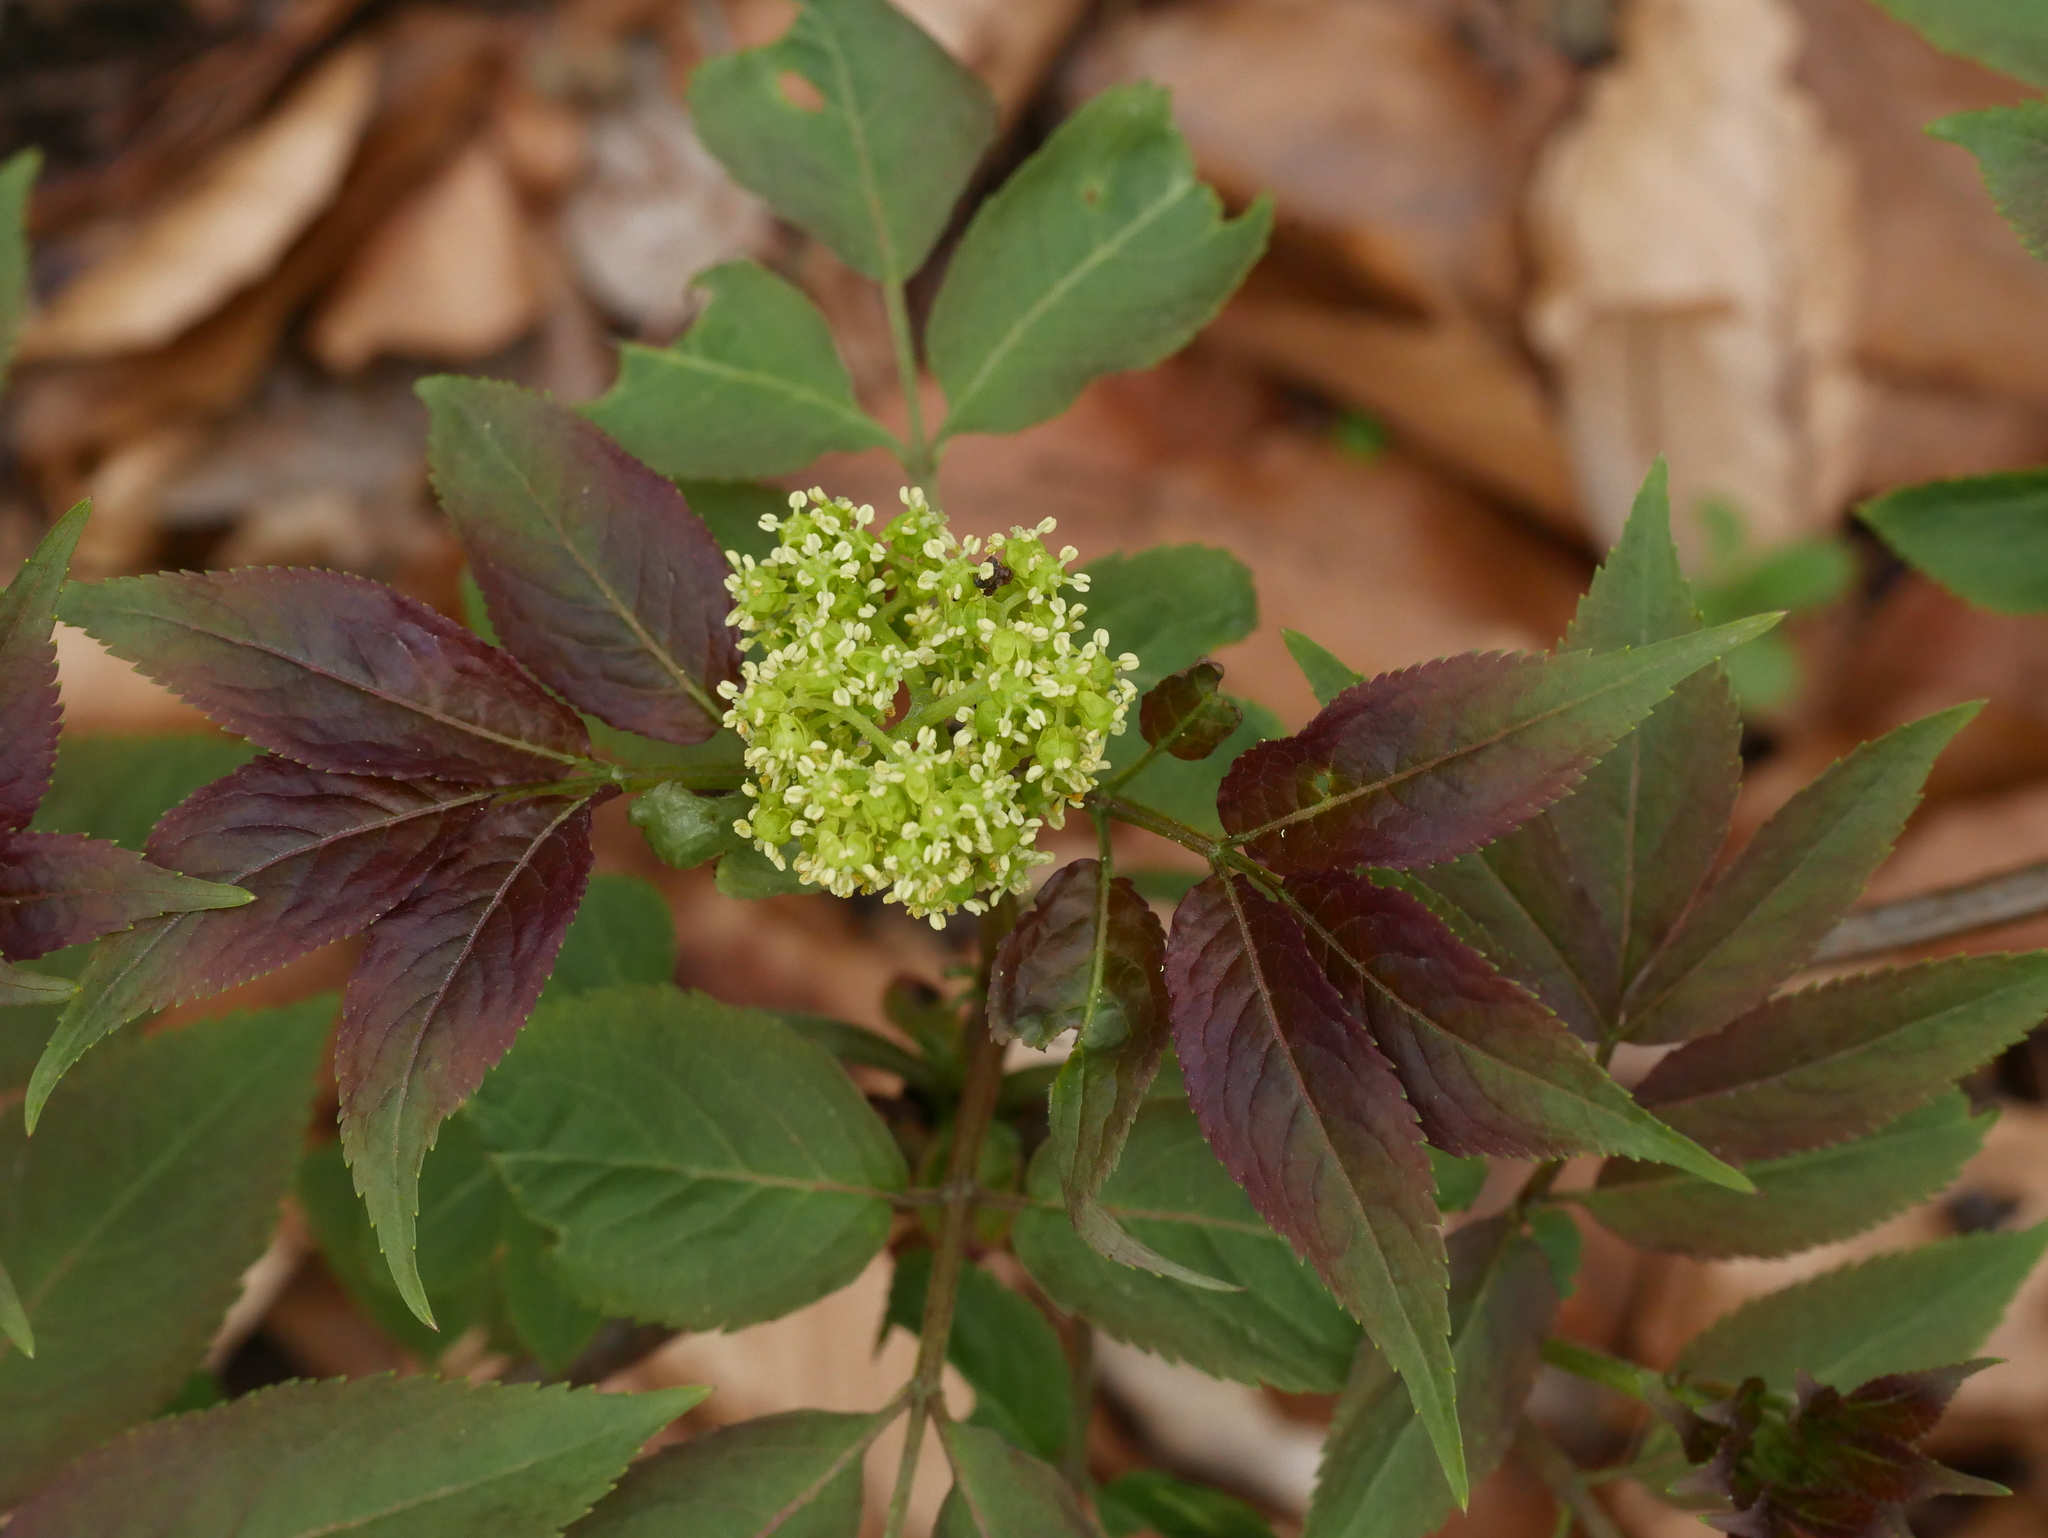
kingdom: Plantae
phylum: Tracheophyta
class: Magnoliopsida
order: Dipsacales
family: Viburnaceae
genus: Sambucus
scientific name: Sambucus racemosa
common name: Red-berried elder
